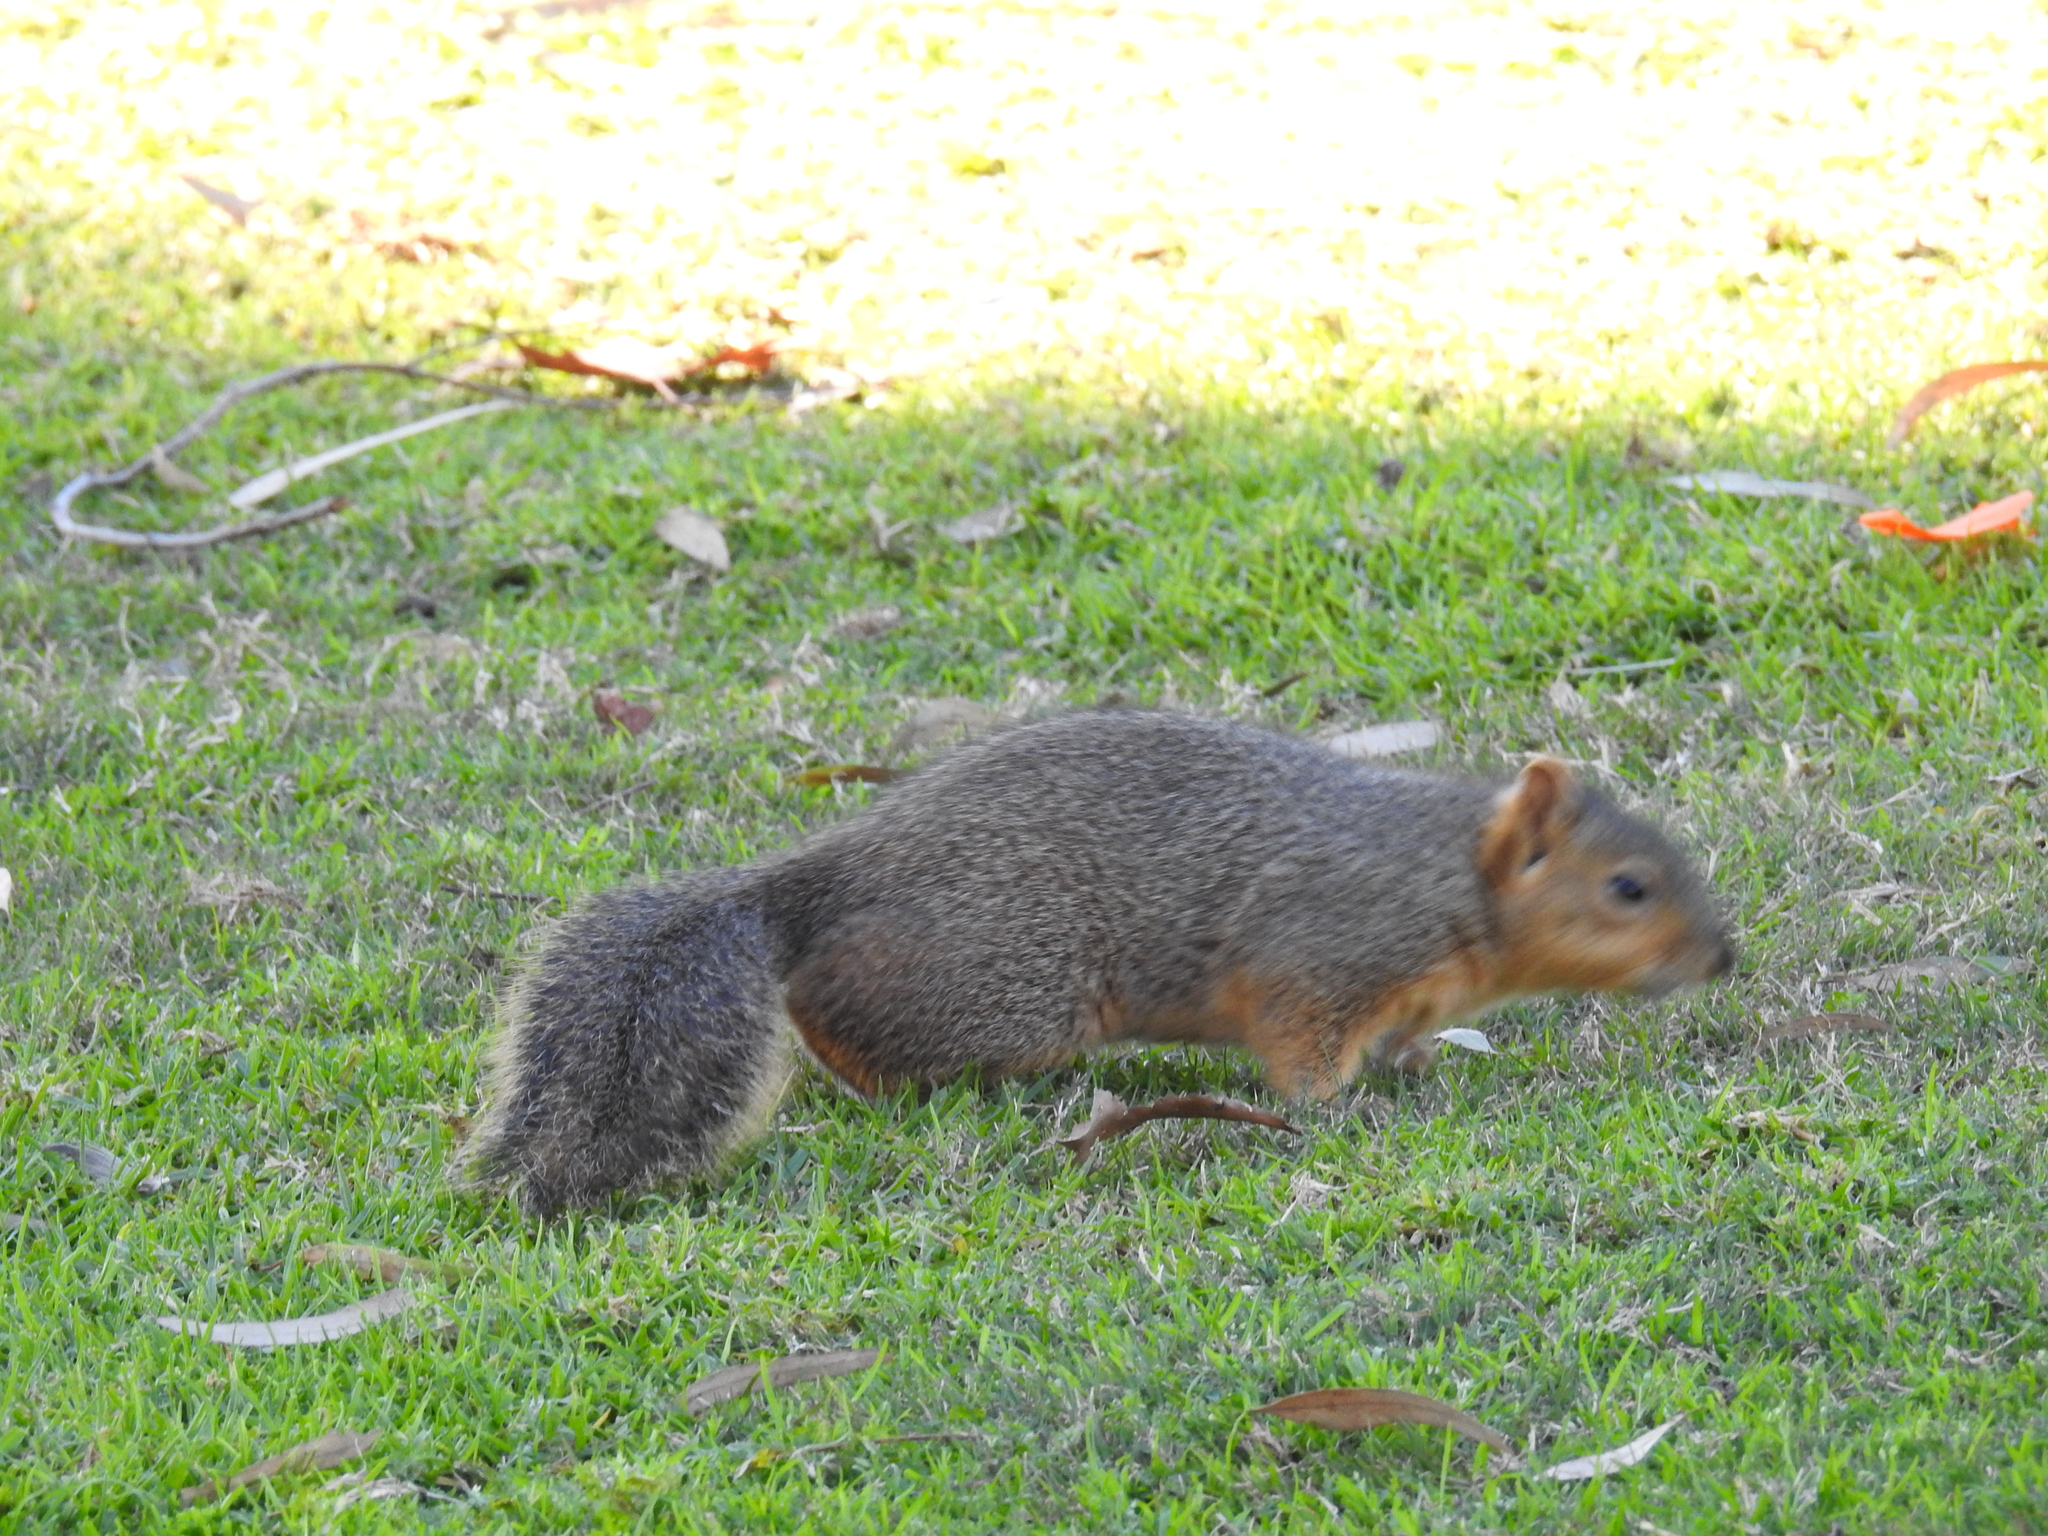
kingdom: Animalia
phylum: Chordata
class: Mammalia
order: Rodentia
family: Sciuridae
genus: Sciurus
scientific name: Sciurus niger
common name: Fox squirrel
